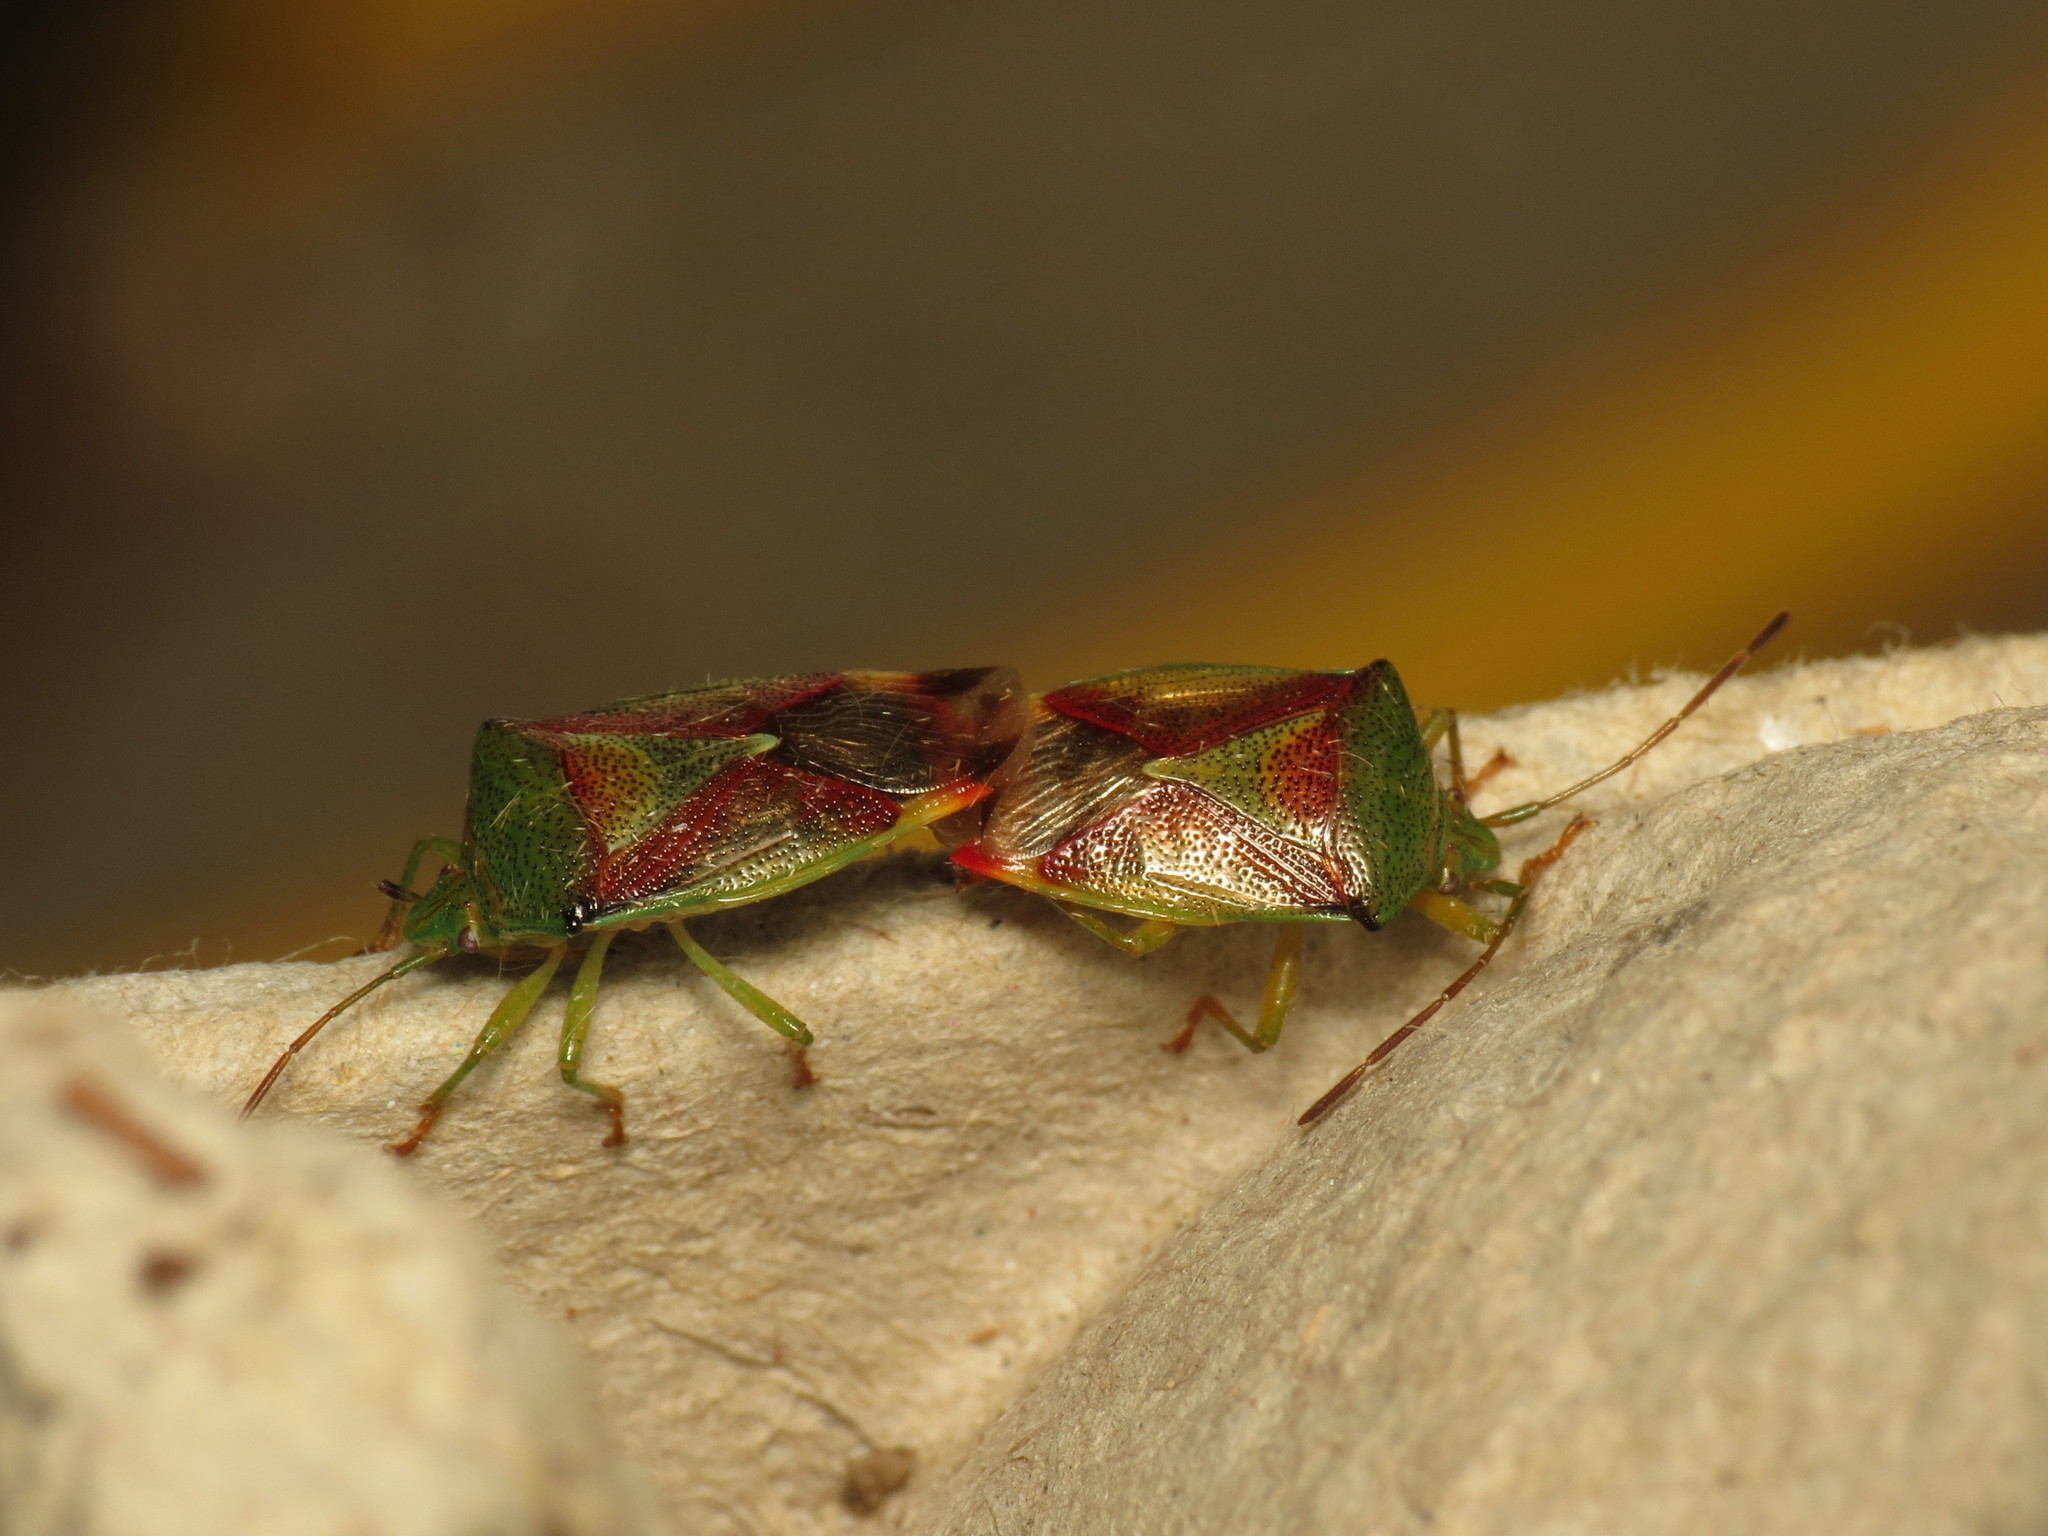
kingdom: Animalia
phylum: Arthropoda
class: Insecta
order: Hemiptera
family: Acanthosomatidae
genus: Elasmostethus
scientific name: Elasmostethus interstinctus
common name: Birch shieldbug
